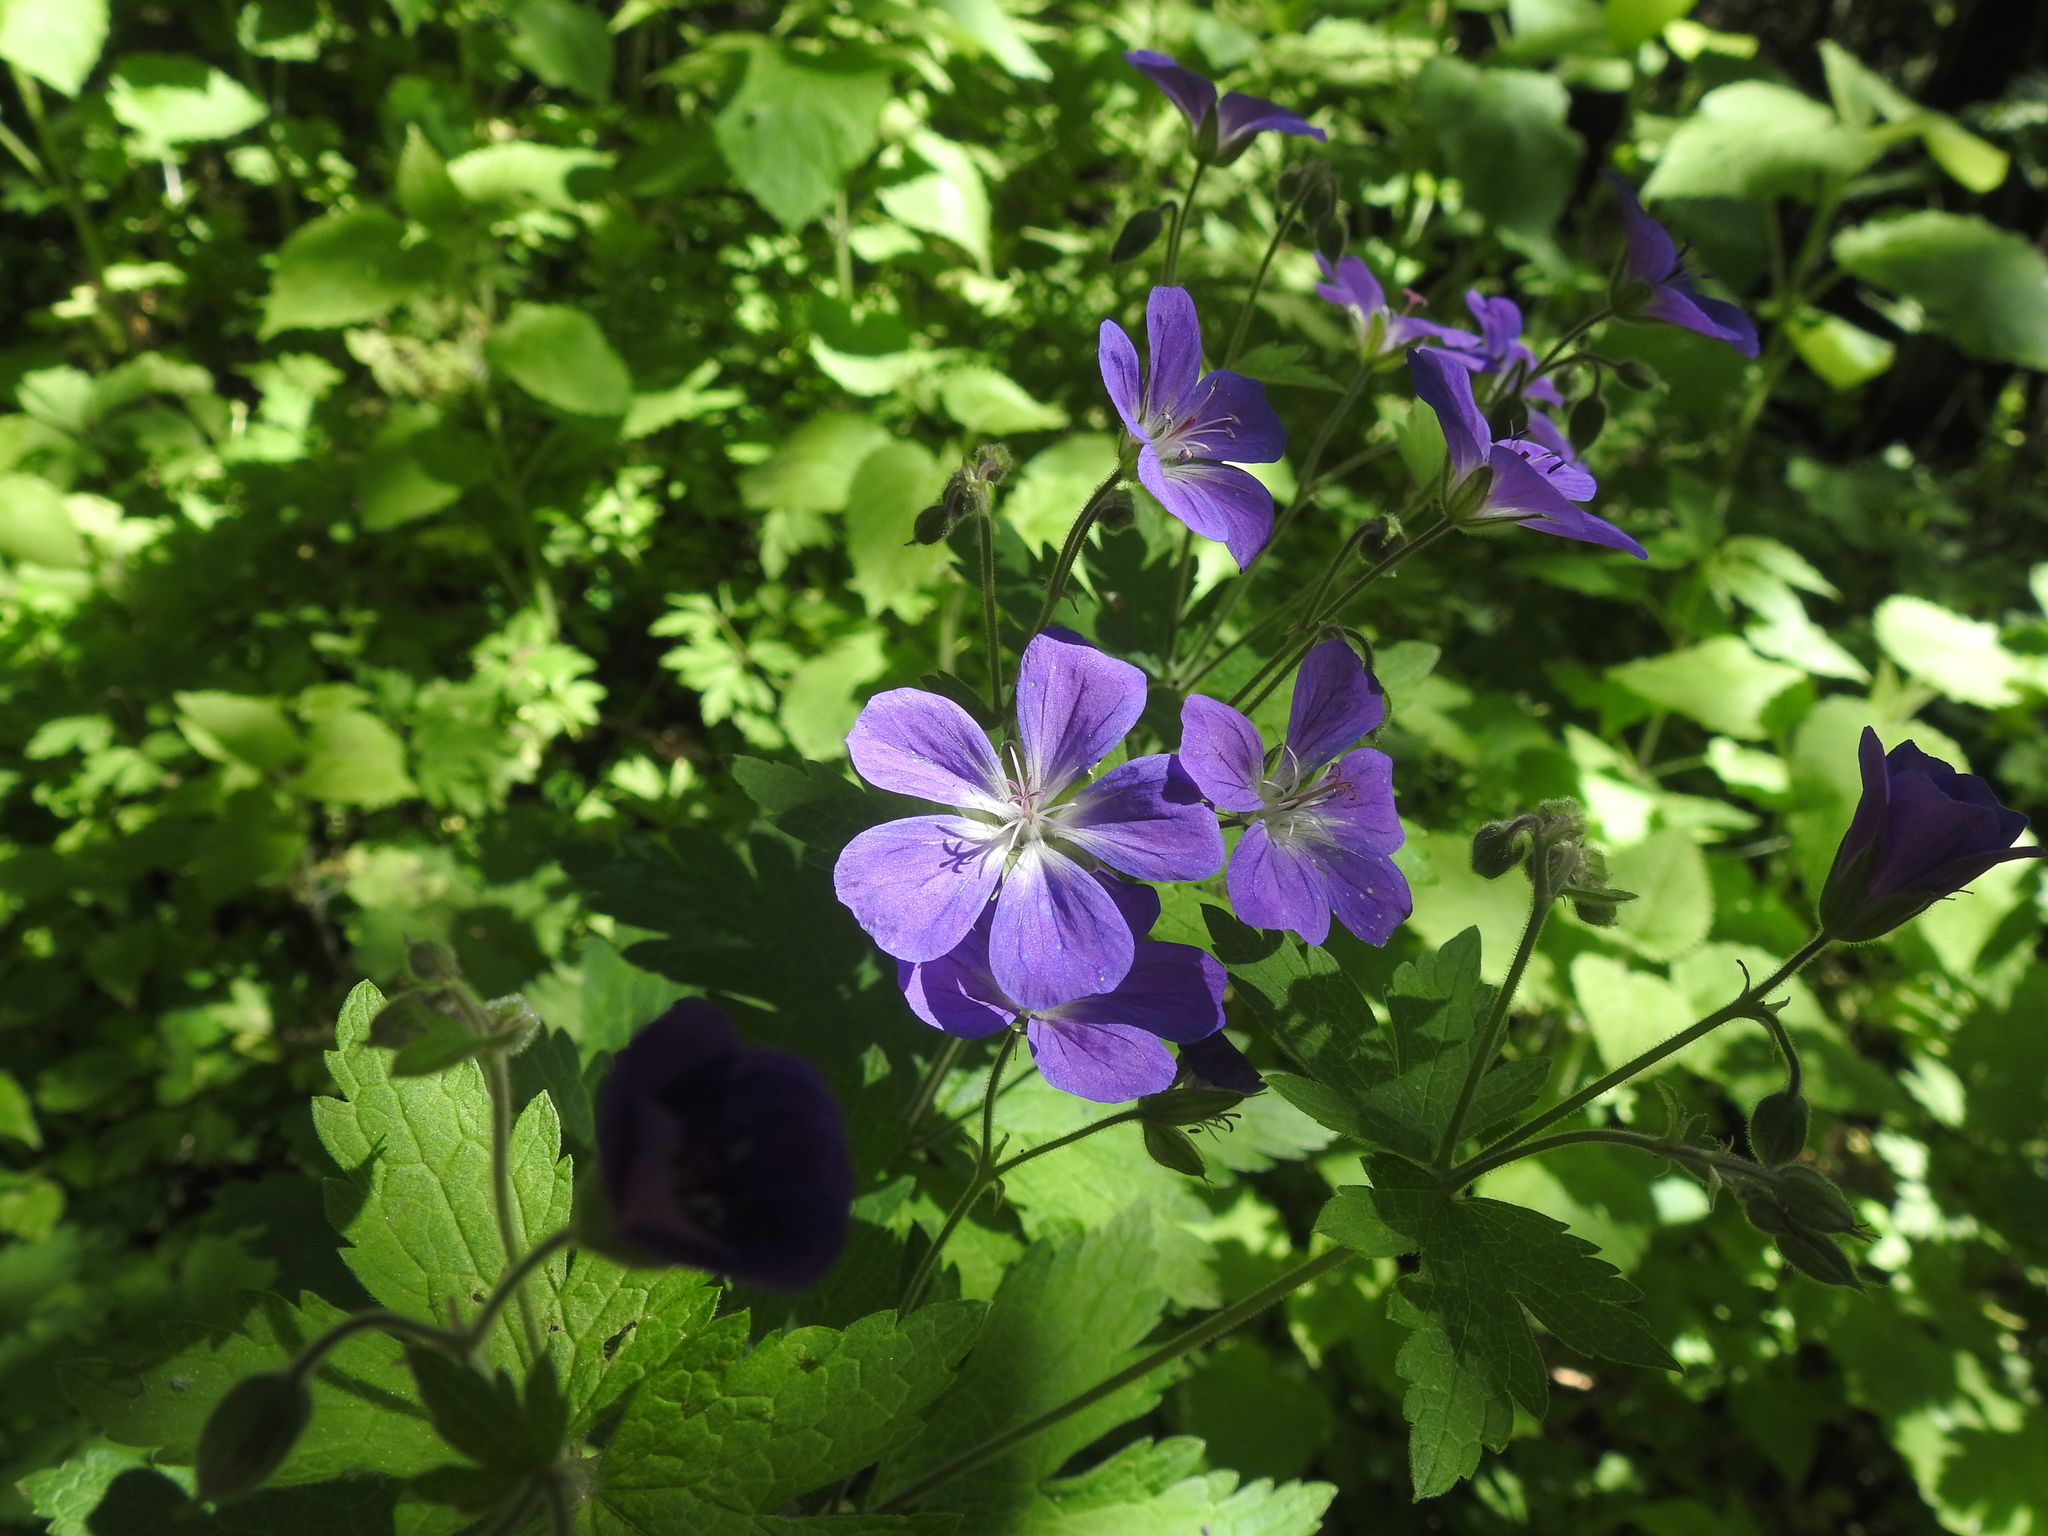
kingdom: Plantae
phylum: Tracheophyta
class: Magnoliopsida
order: Geraniales
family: Geraniaceae
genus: Geranium
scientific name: Geranium sylvaticum
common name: Wood crane's-bill
